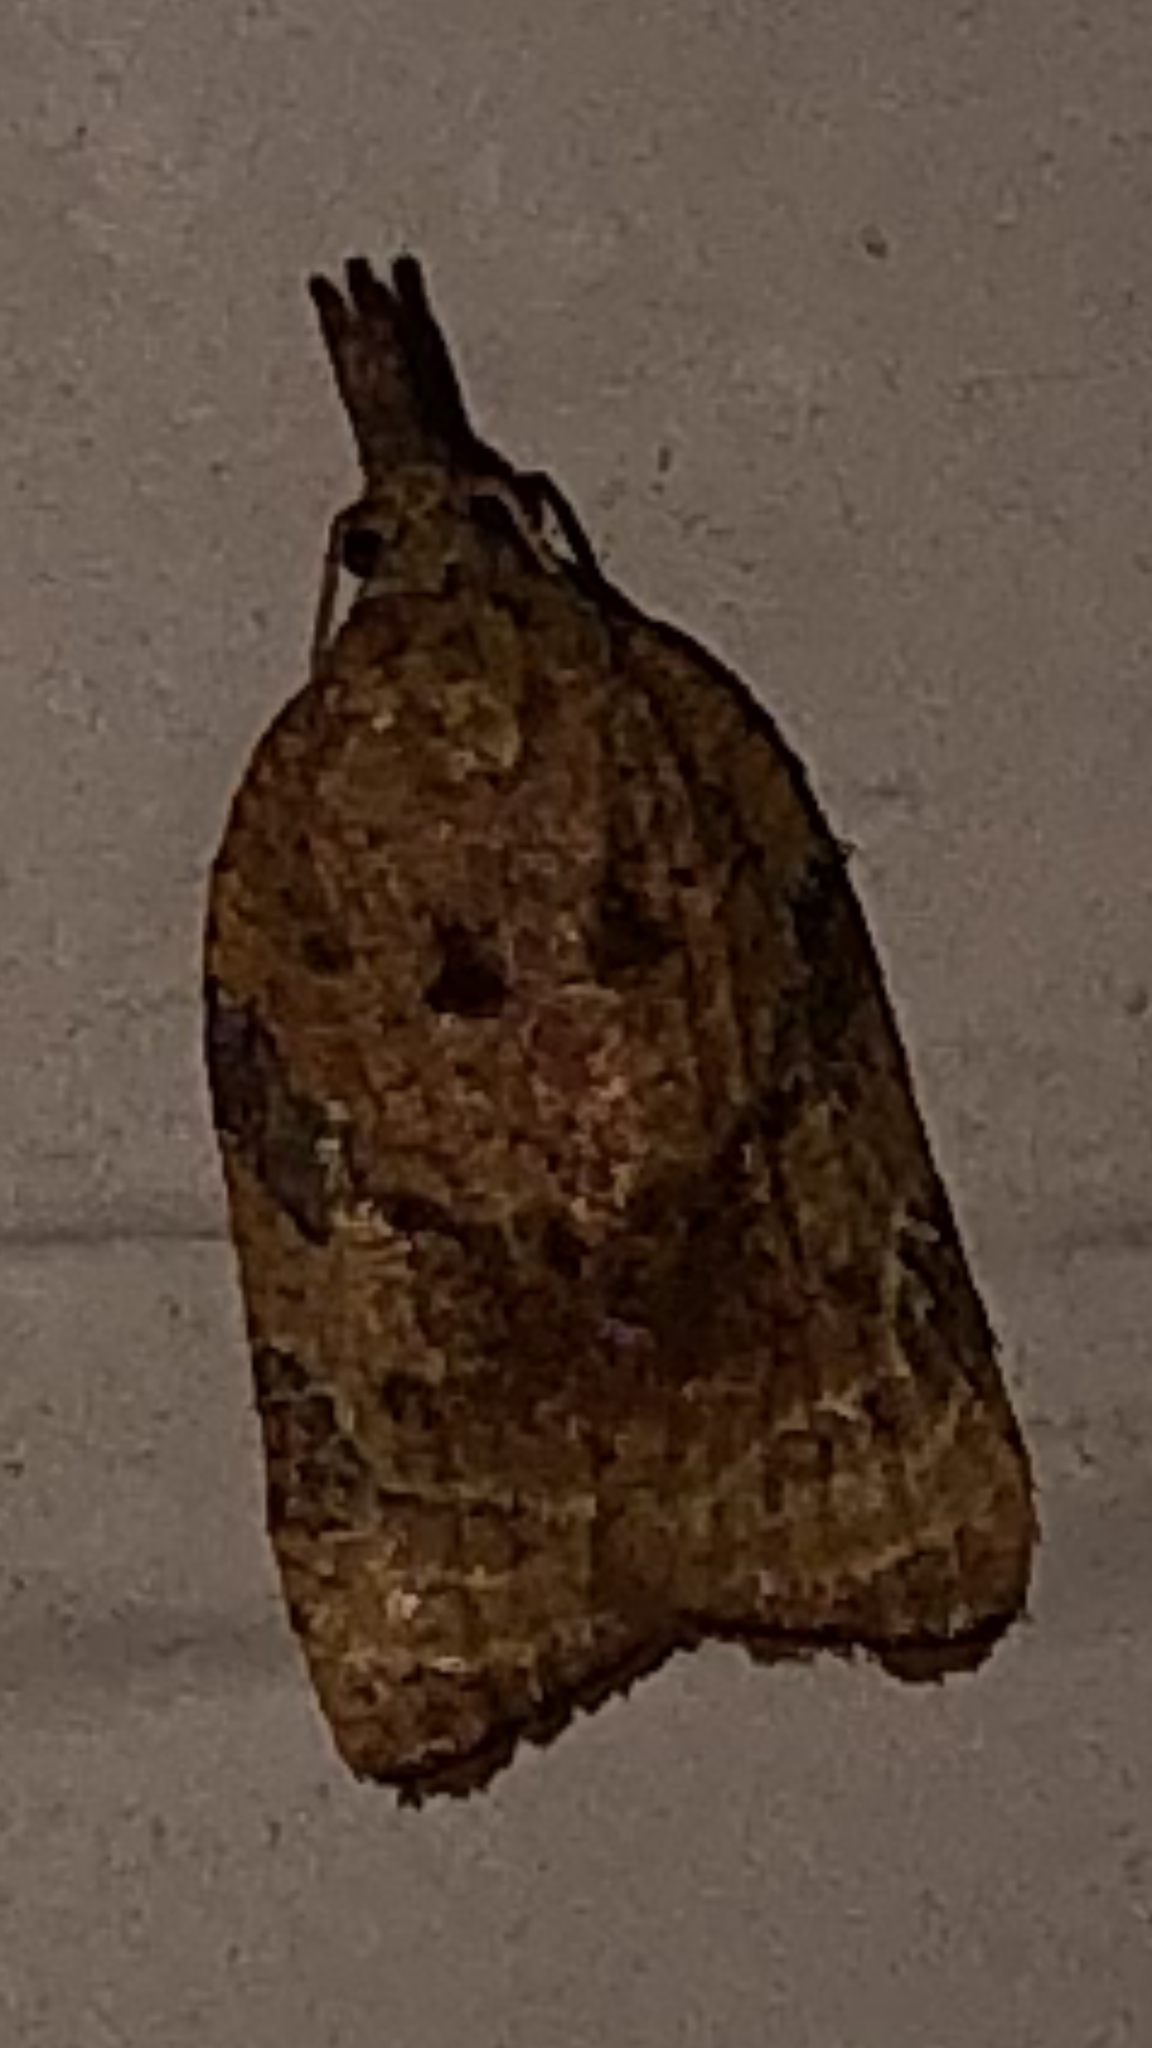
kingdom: Animalia
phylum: Arthropoda
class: Insecta
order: Lepidoptera
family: Tortricidae
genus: Platynota
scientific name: Platynota flavedana
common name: Black-shaded platynota moth
